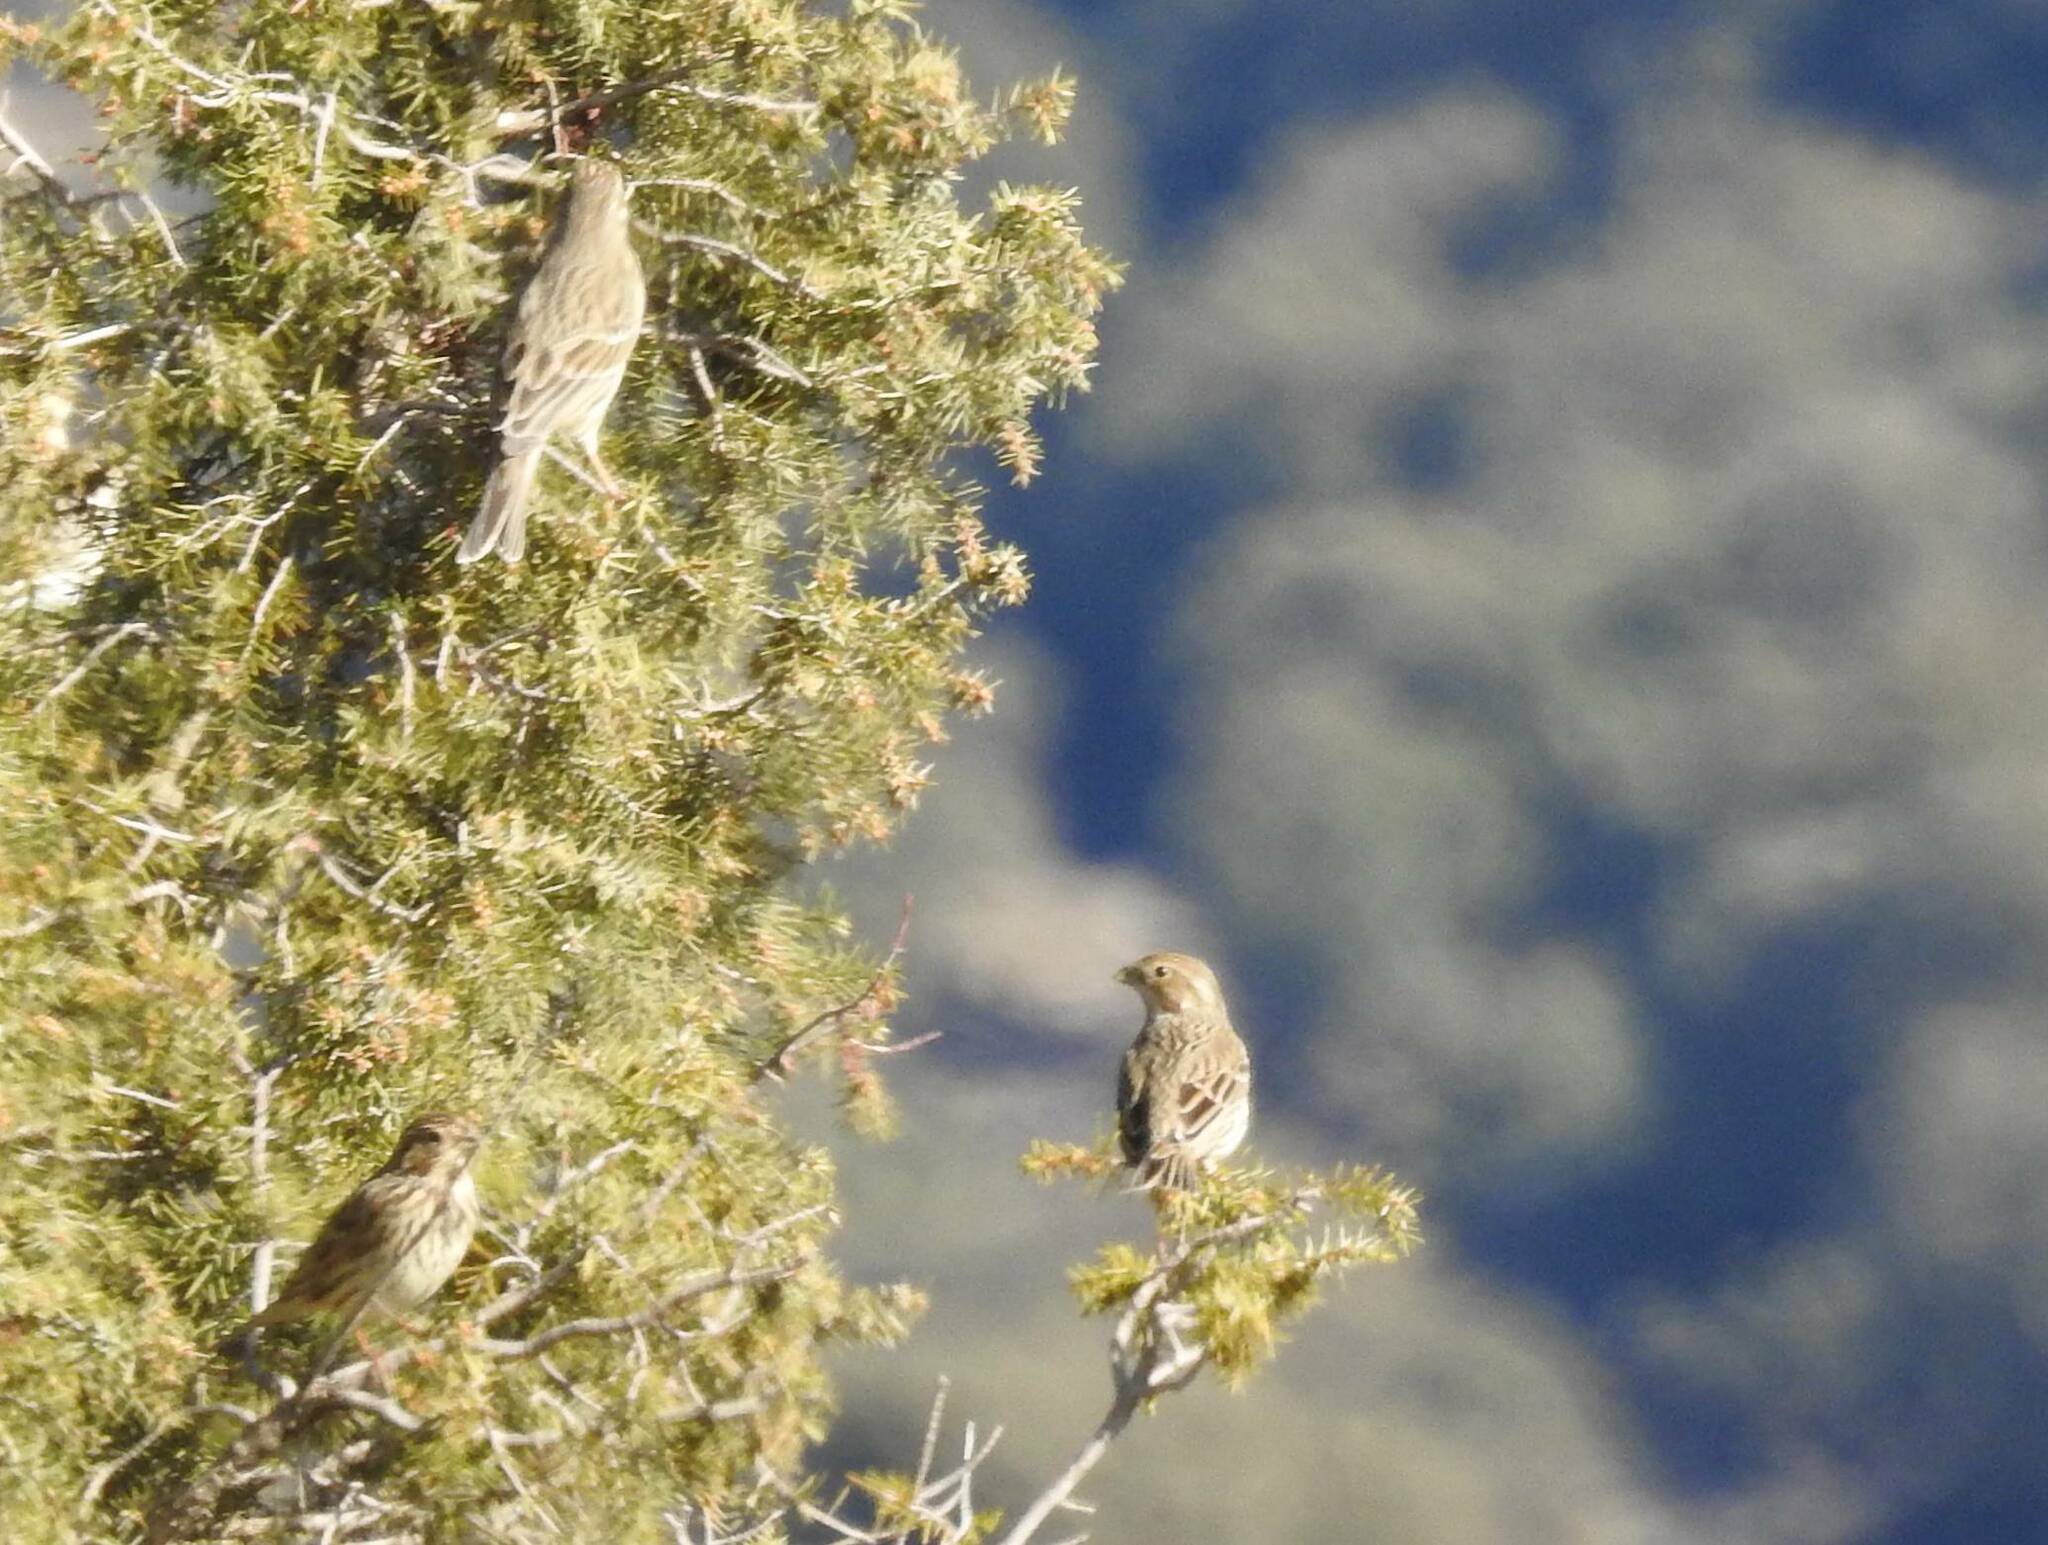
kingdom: Animalia
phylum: Chordata
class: Aves
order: Passeriformes
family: Emberizidae
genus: Emberiza
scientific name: Emberiza calandra
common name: Corn bunting
